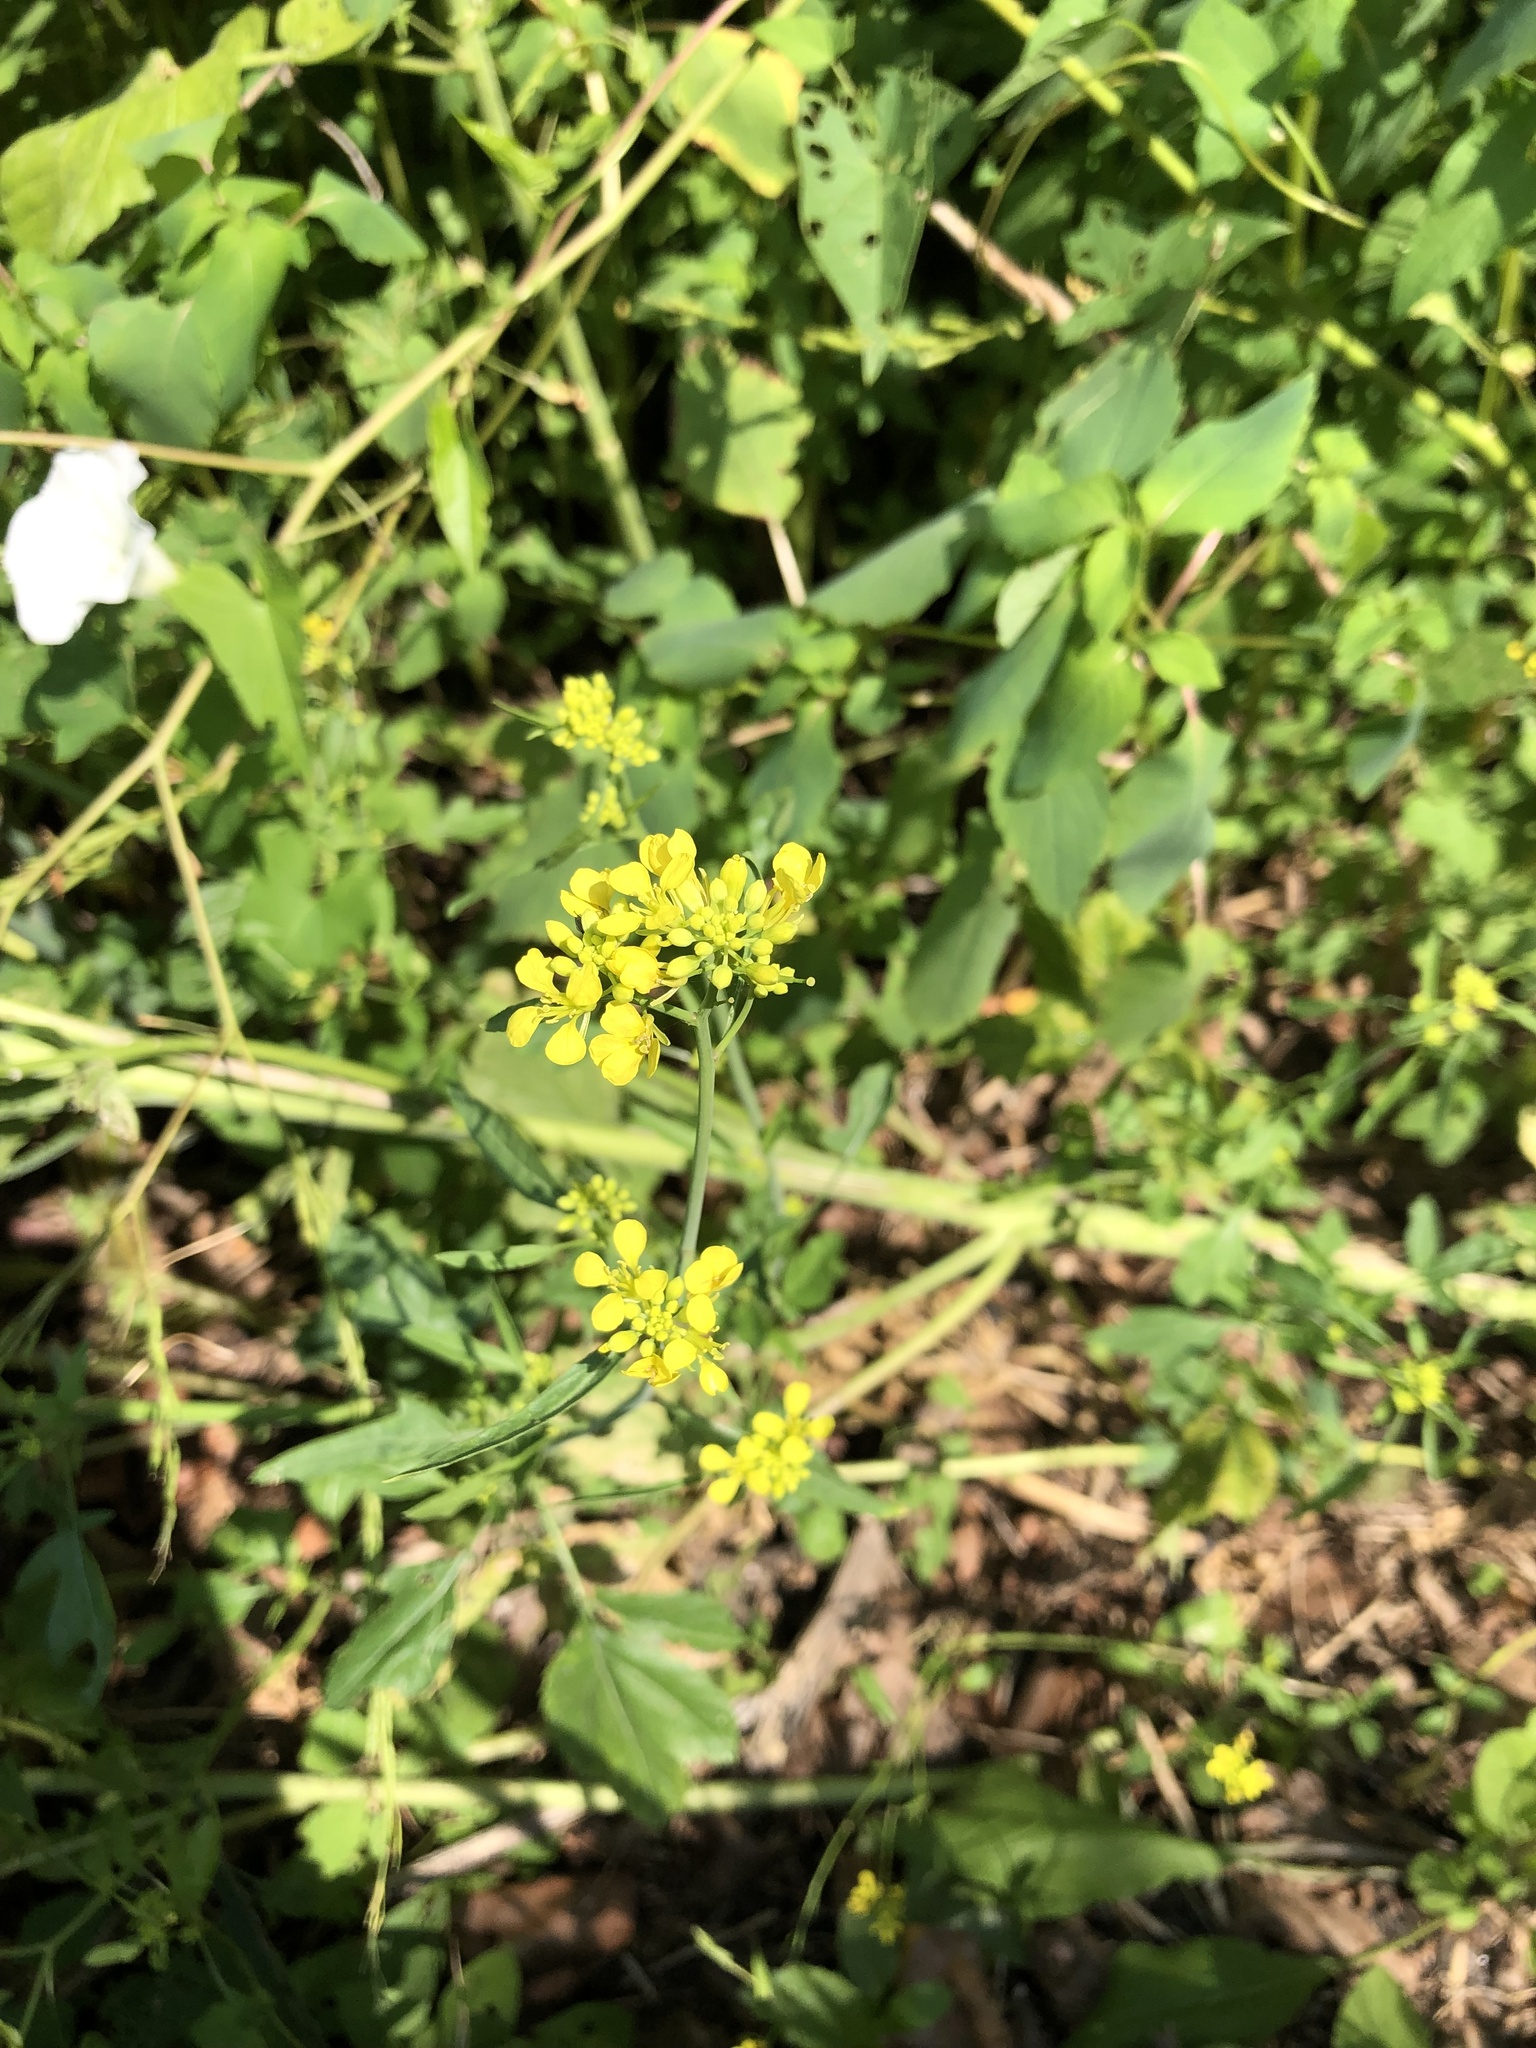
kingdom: Plantae
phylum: Tracheophyta
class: Magnoliopsida
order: Brassicales
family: Brassicaceae
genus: Brassica
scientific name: Brassica nigra
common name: Black mustard
